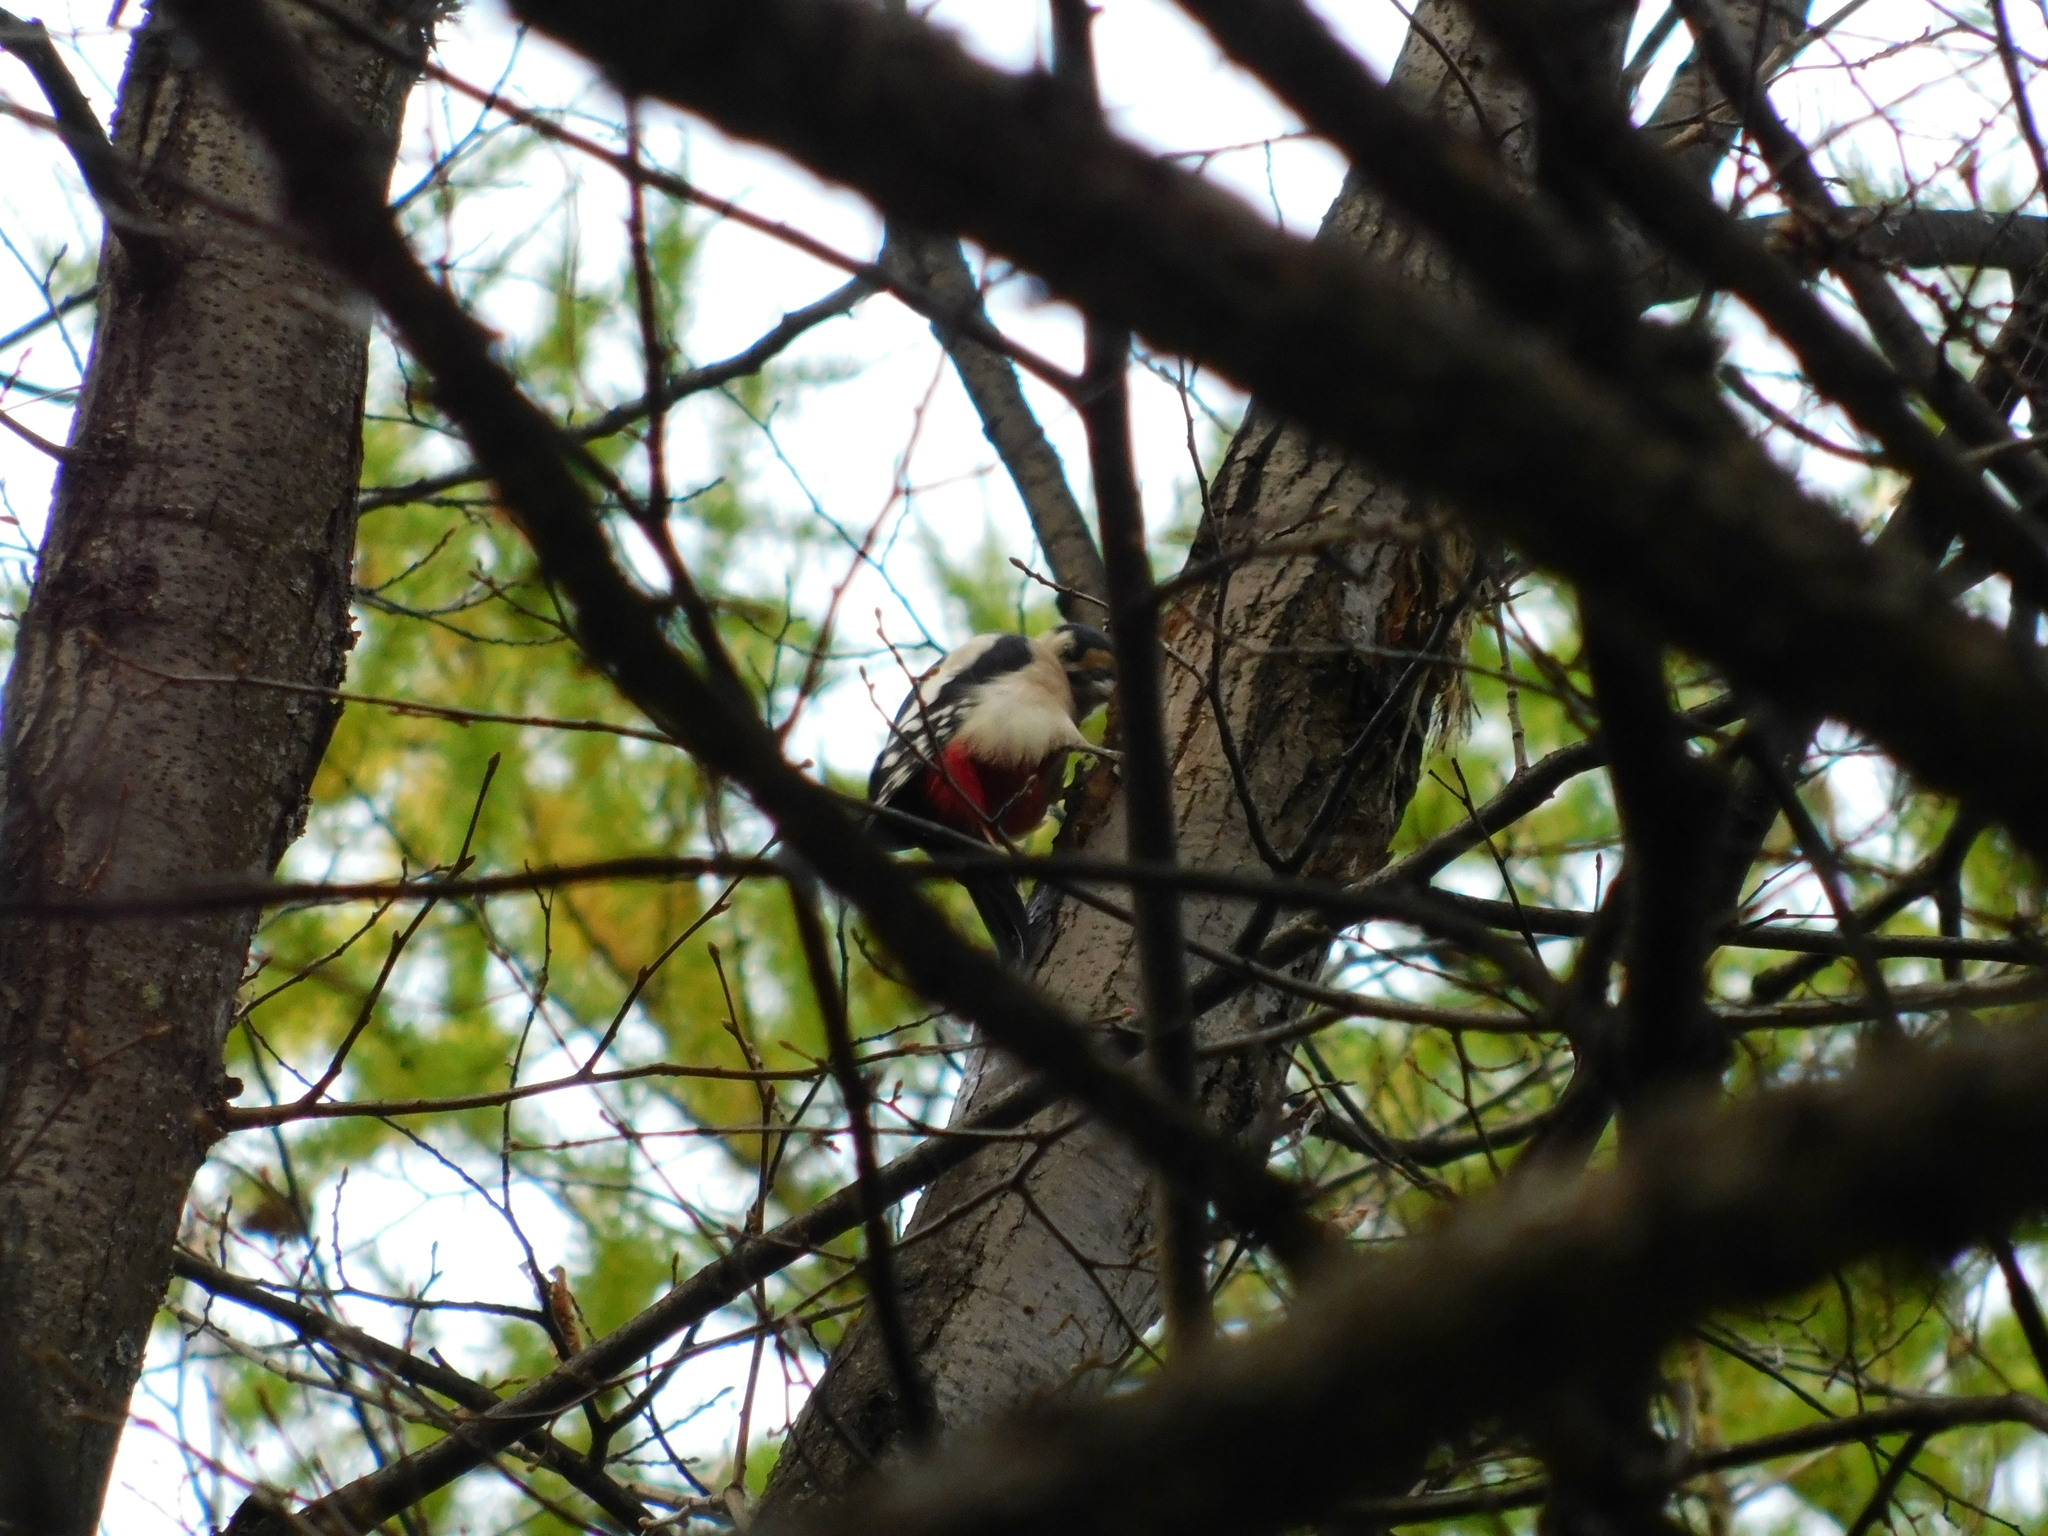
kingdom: Animalia
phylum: Chordata
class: Aves
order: Piciformes
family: Picidae
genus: Dendrocopos
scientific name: Dendrocopos major
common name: Great spotted woodpecker
